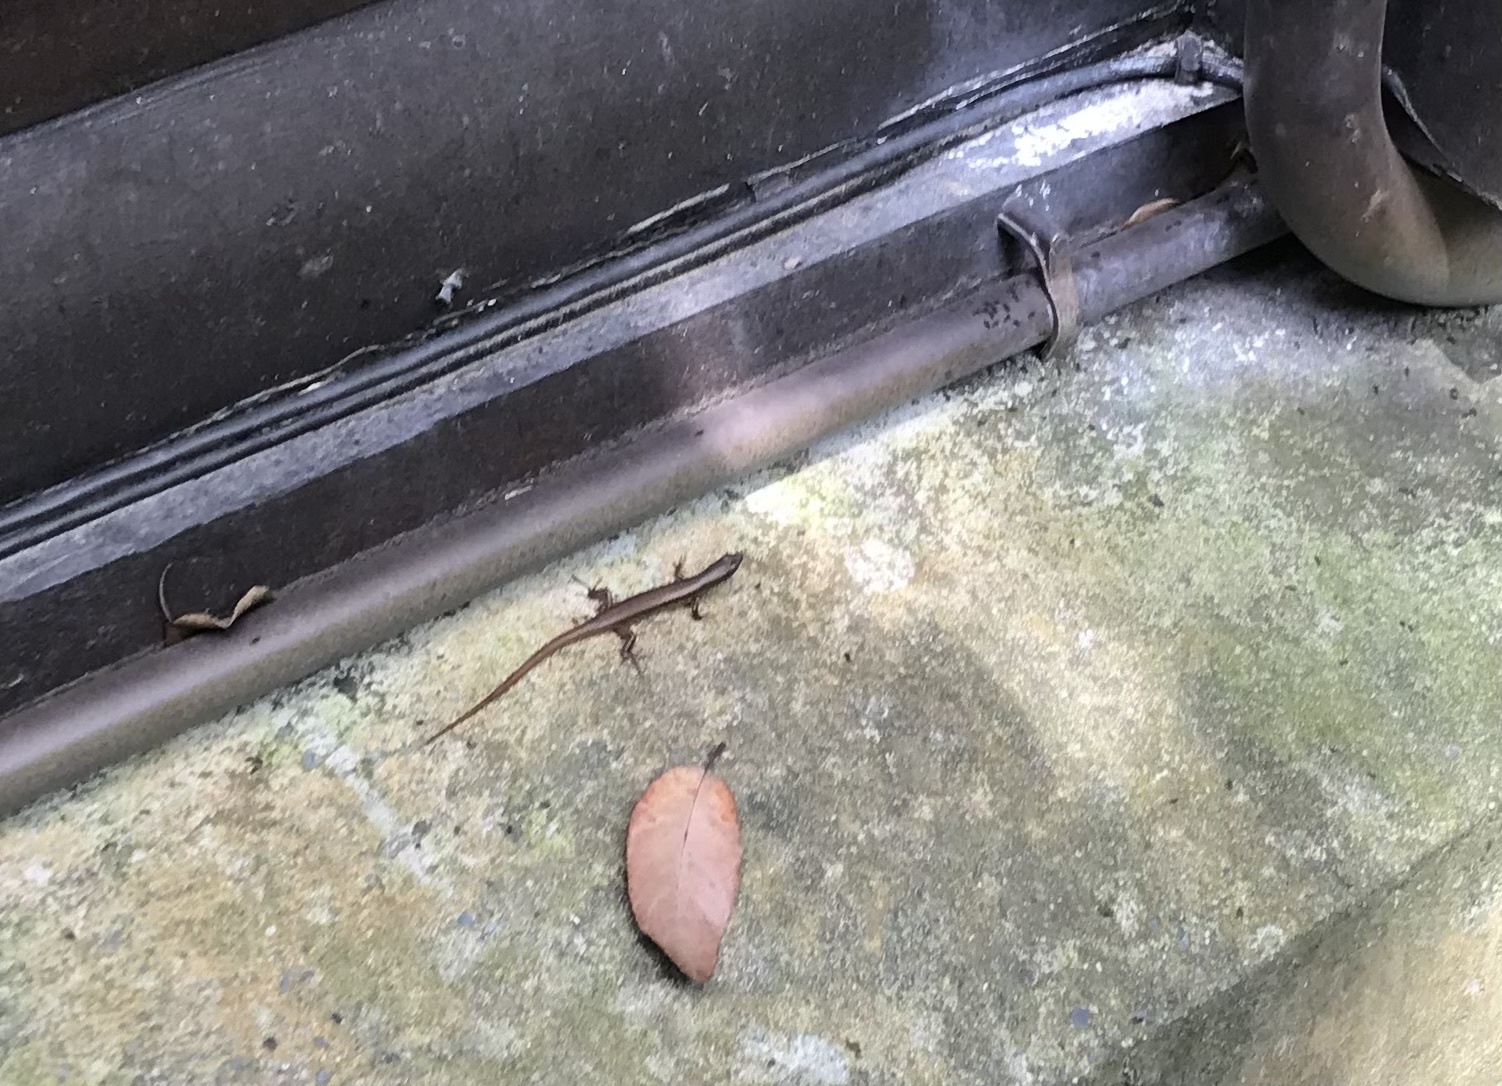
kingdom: Animalia
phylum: Chordata
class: Squamata
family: Scincidae
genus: Sphenomorphus
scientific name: Sphenomorphus indicus
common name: Himalayan forest skink
